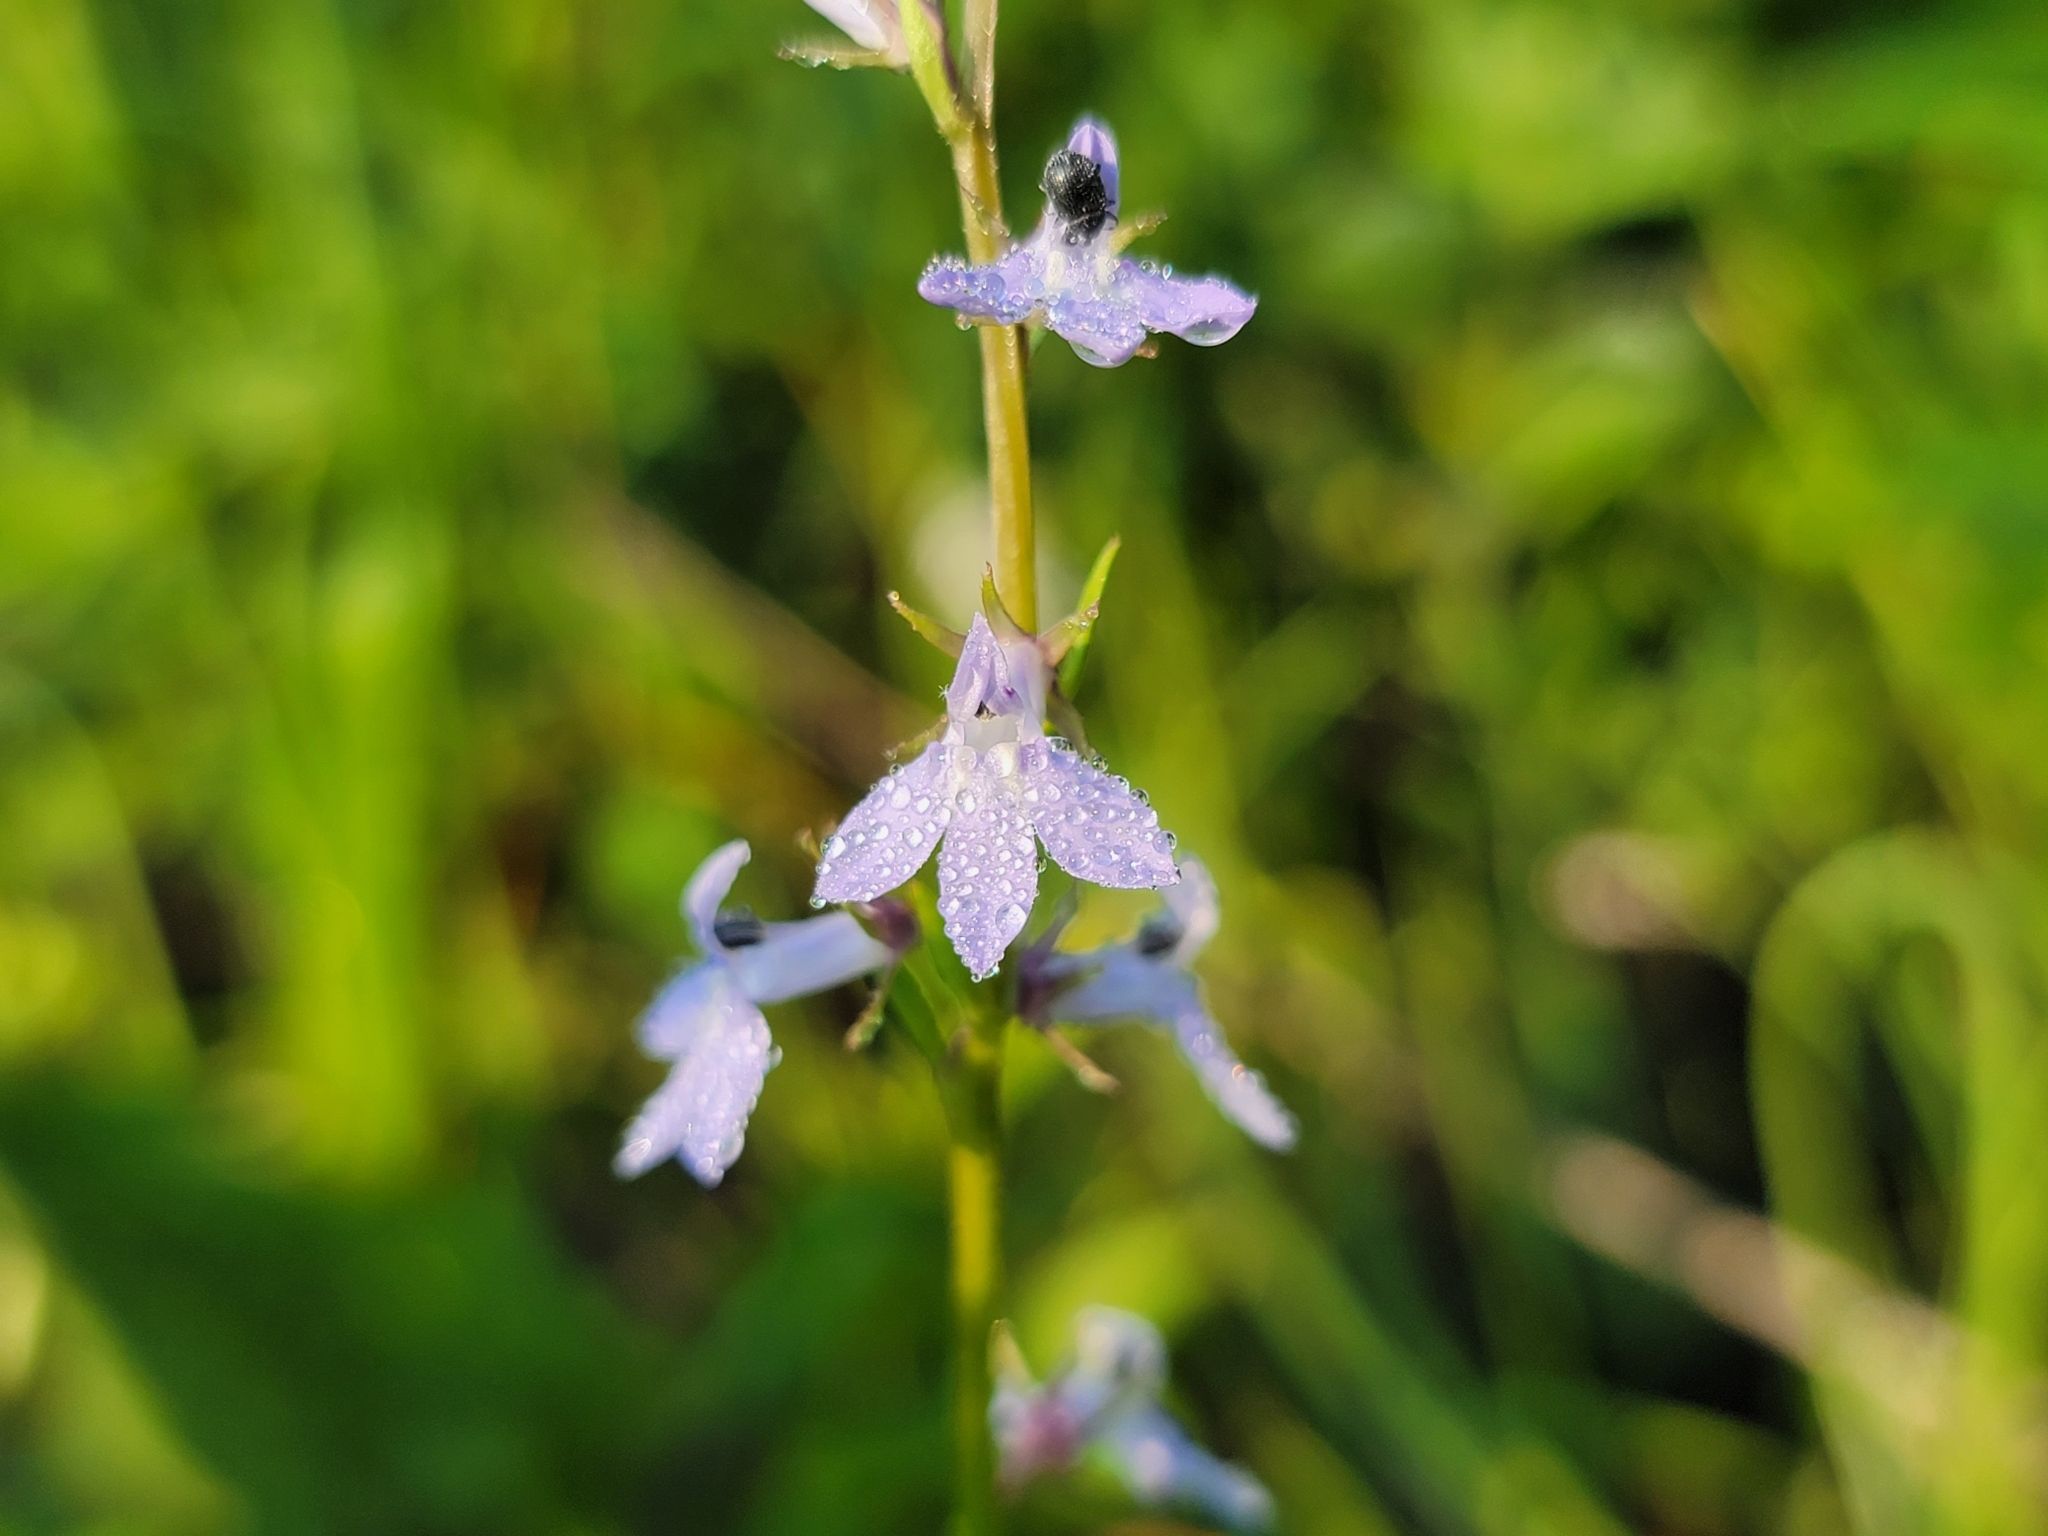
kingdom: Plantae
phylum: Tracheophyta
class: Magnoliopsida
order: Asterales
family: Campanulaceae
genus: Lobelia
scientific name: Lobelia spicata
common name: Pale-spike lobelia
